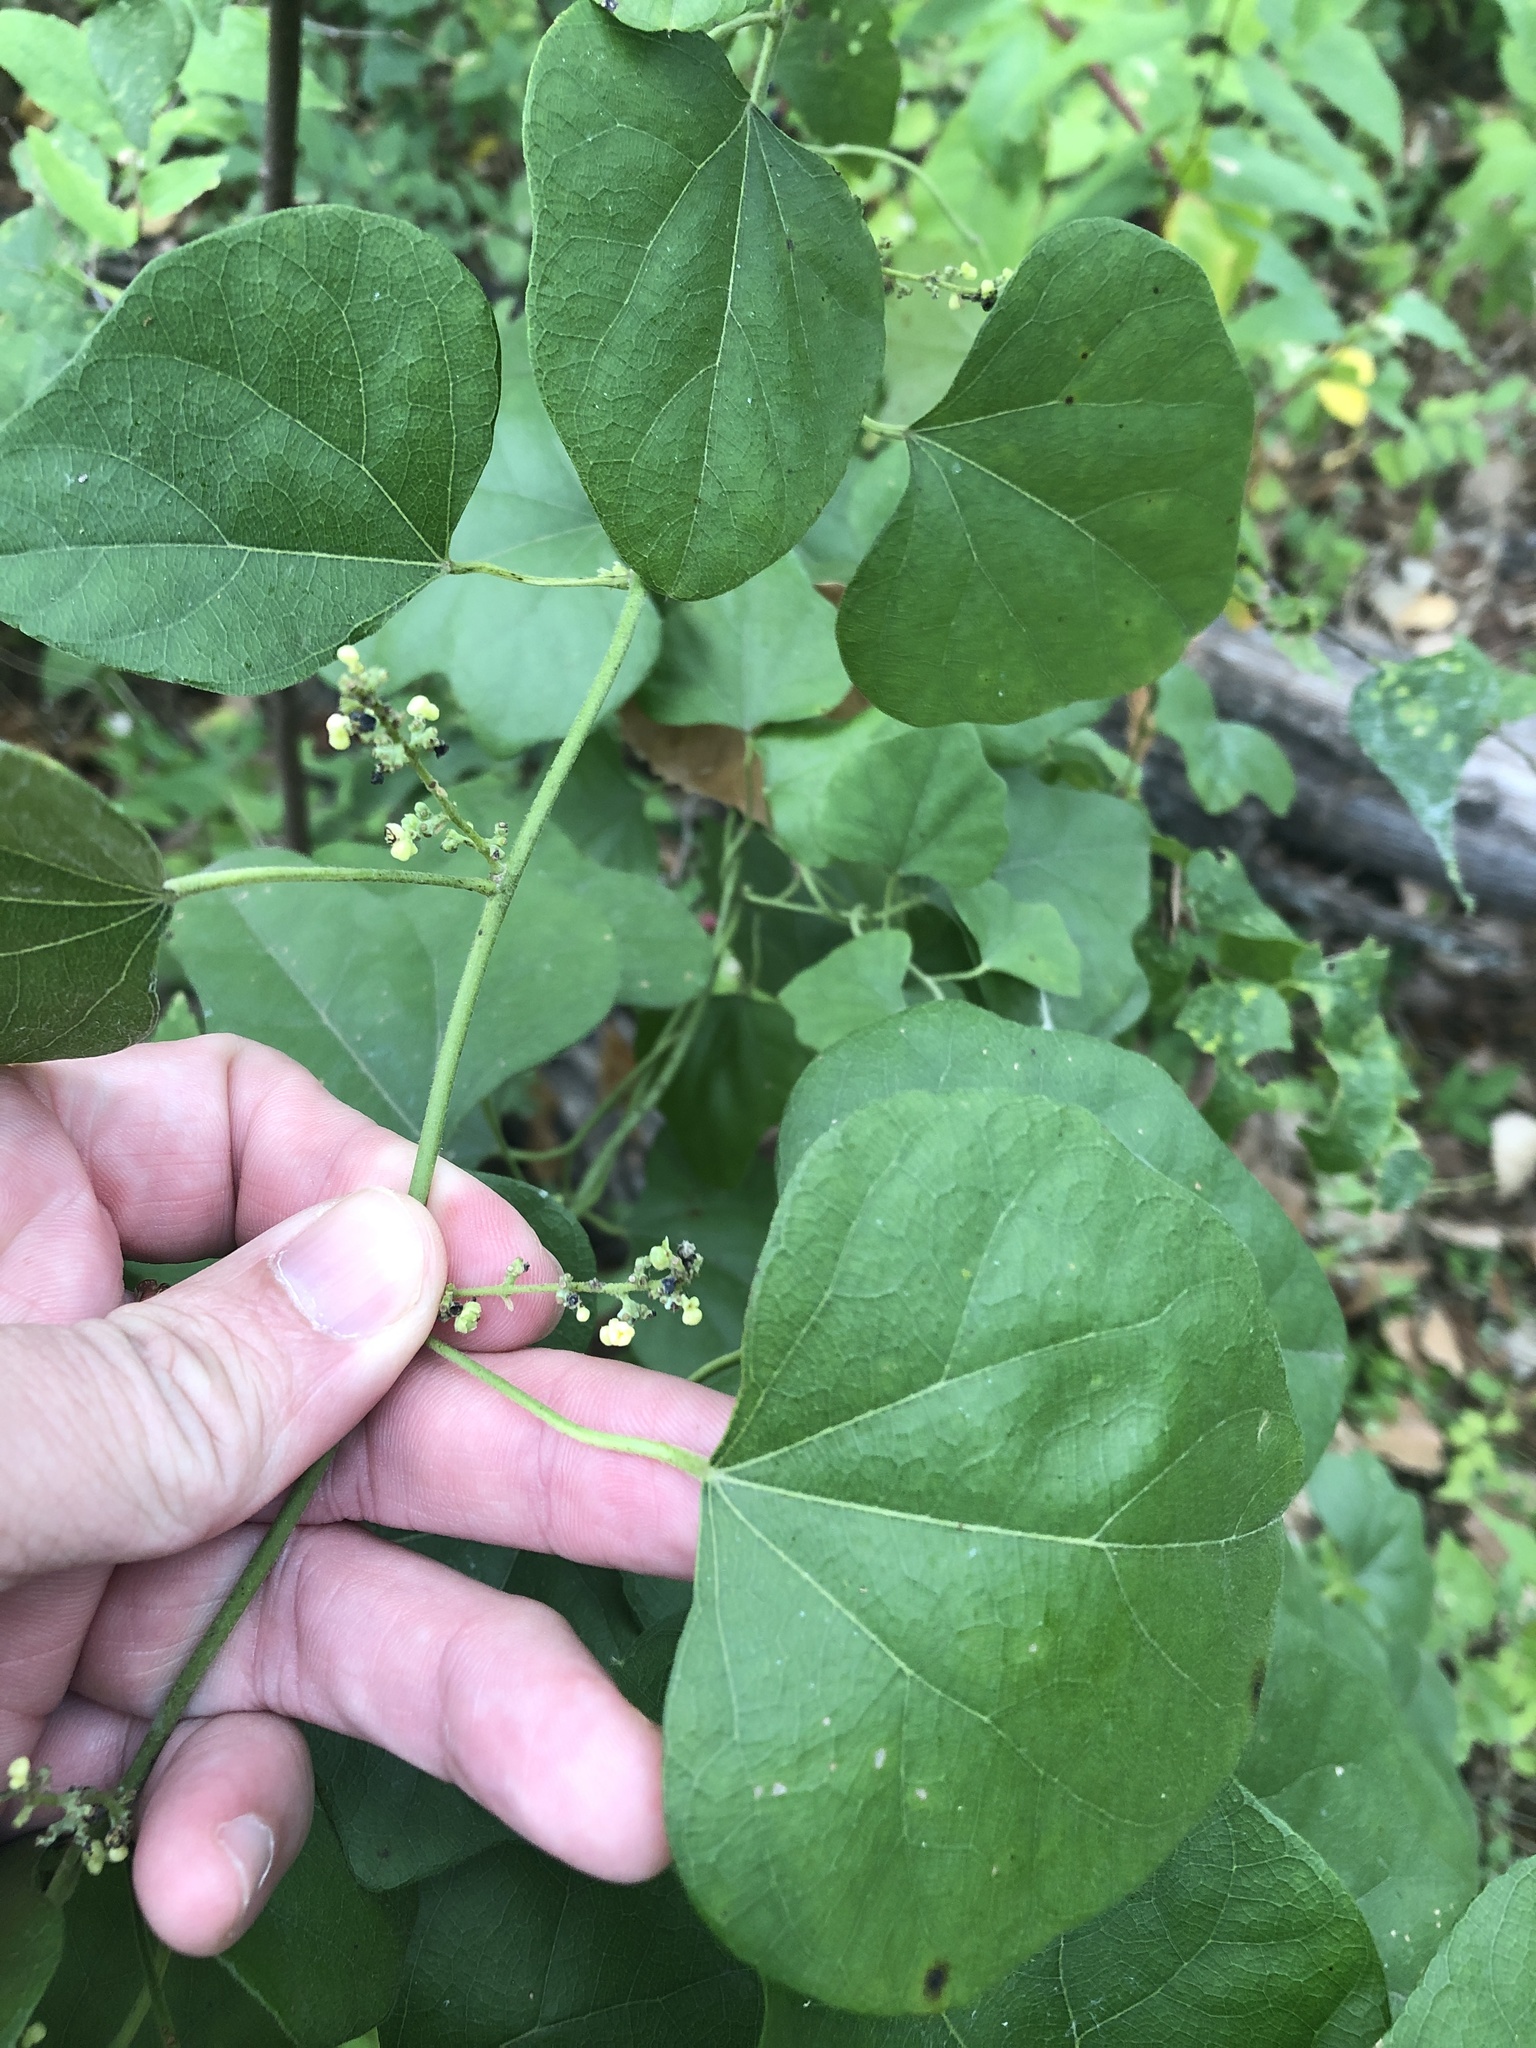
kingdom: Plantae
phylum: Tracheophyta
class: Magnoliopsida
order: Ranunculales
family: Menispermaceae
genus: Cocculus
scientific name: Cocculus carolinus
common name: Carolina moonseed
